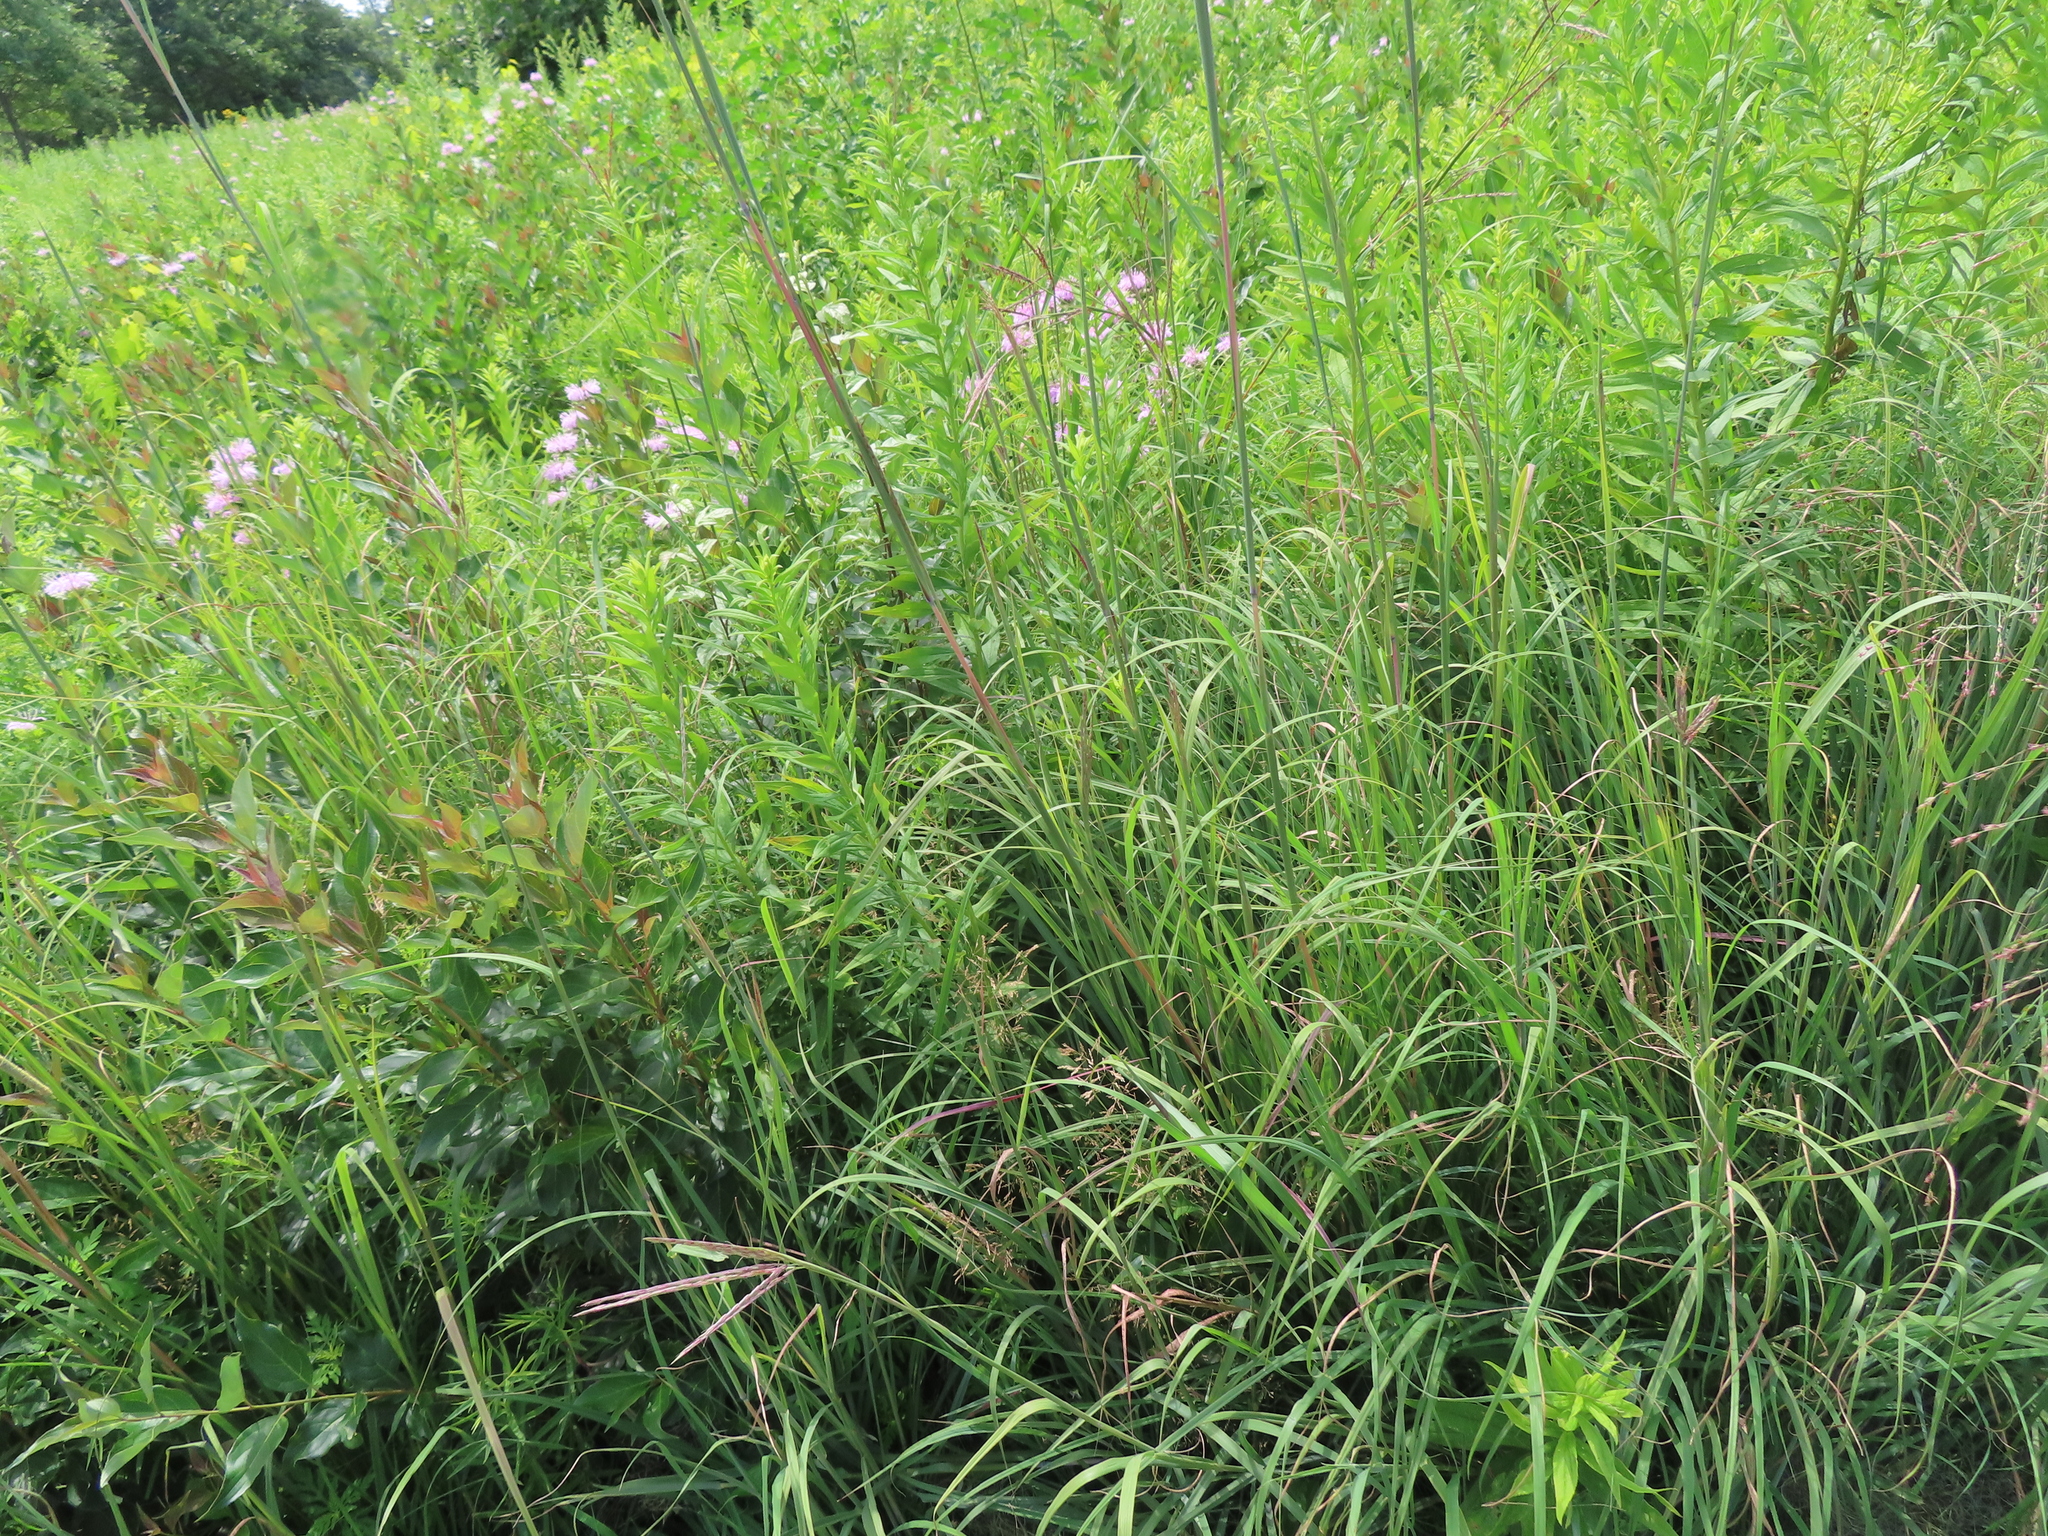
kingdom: Plantae
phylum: Tracheophyta
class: Liliopsida
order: Poales
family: Poaceae
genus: Andropogon
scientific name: Andropogon gerardi
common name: Big bluestem
